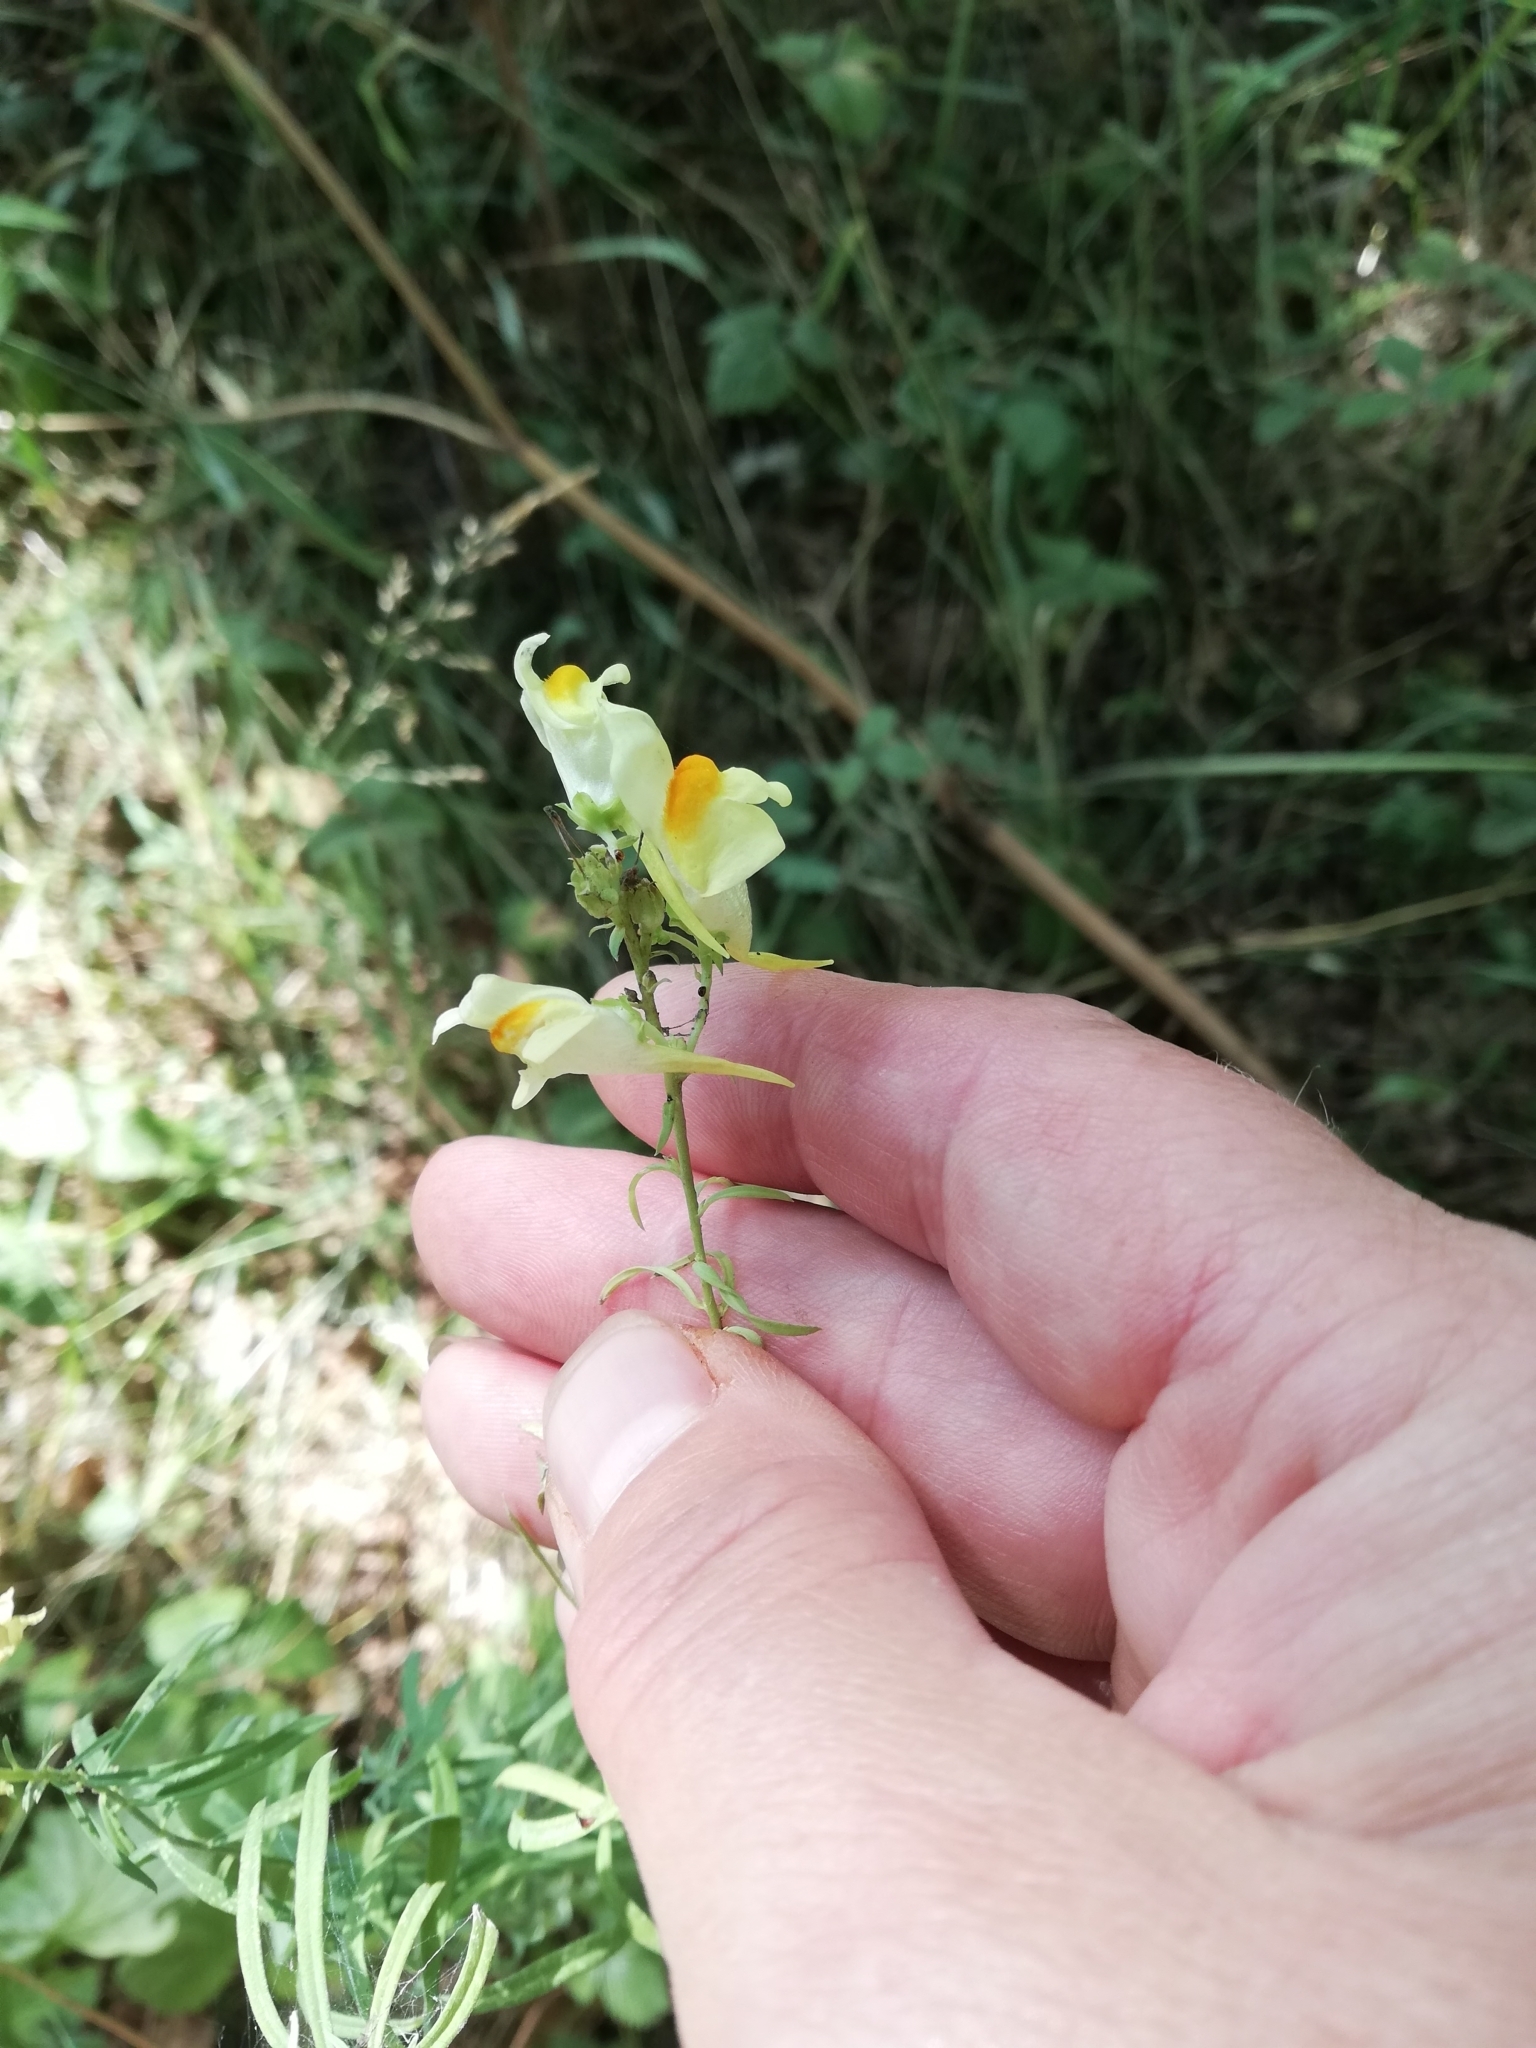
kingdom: Plantae
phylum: Tracheophyta
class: Magnoliopsida
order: Lamiales
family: Plantaginaceae
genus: Linaria
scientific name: Linaria vulgaris
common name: Butter and eggs
